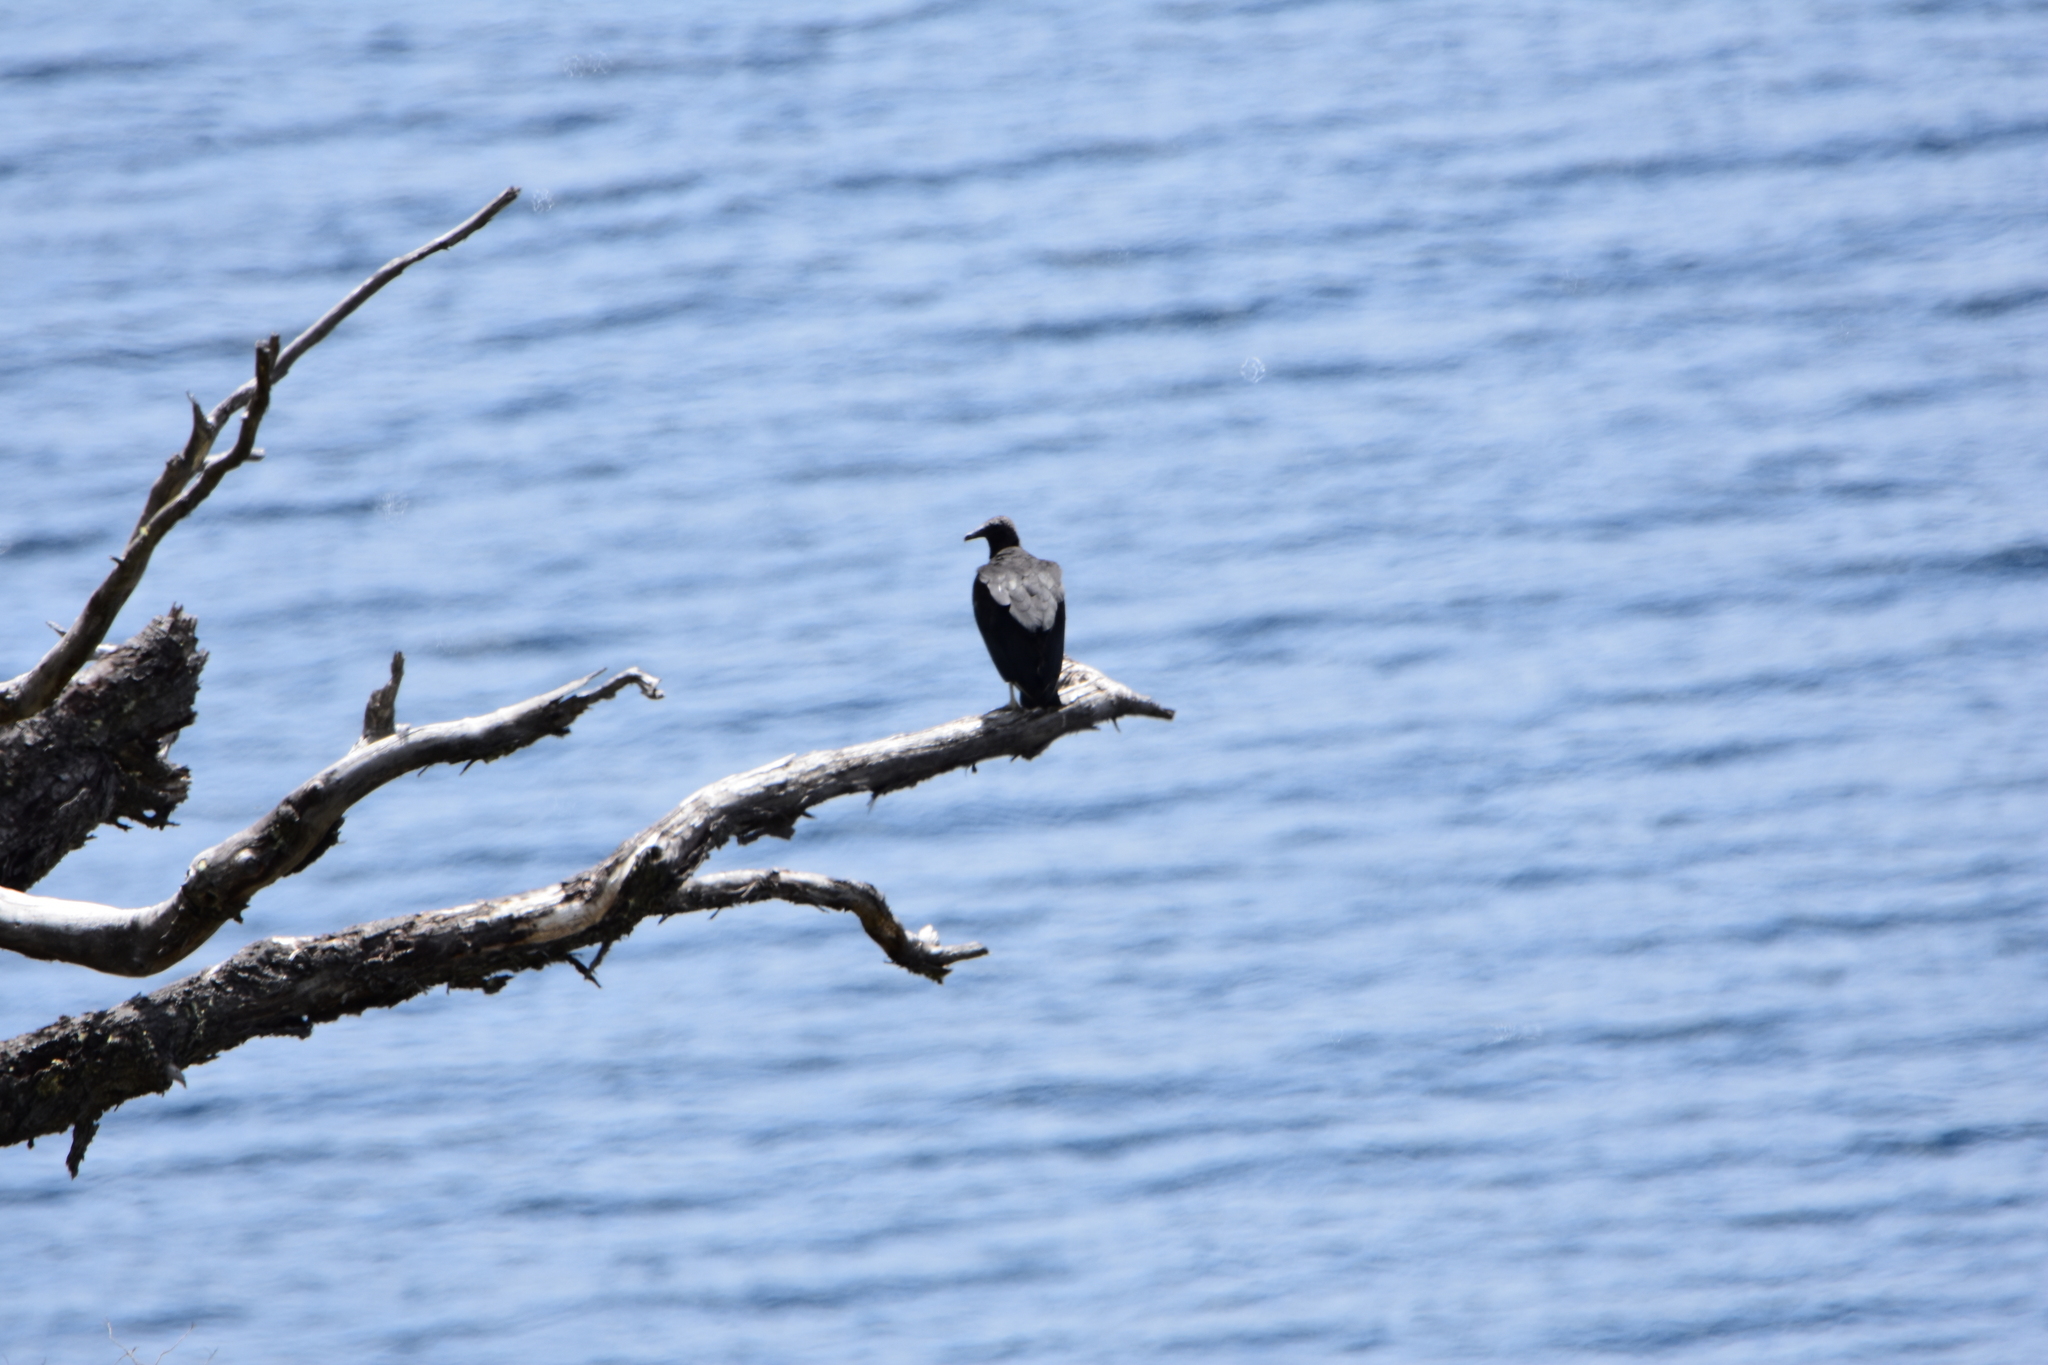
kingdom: Animalia
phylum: Chordata
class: Aves
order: Accipitriformes
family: Cathartidae
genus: Coragyps
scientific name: Coragyps atratus
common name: Black vulture
